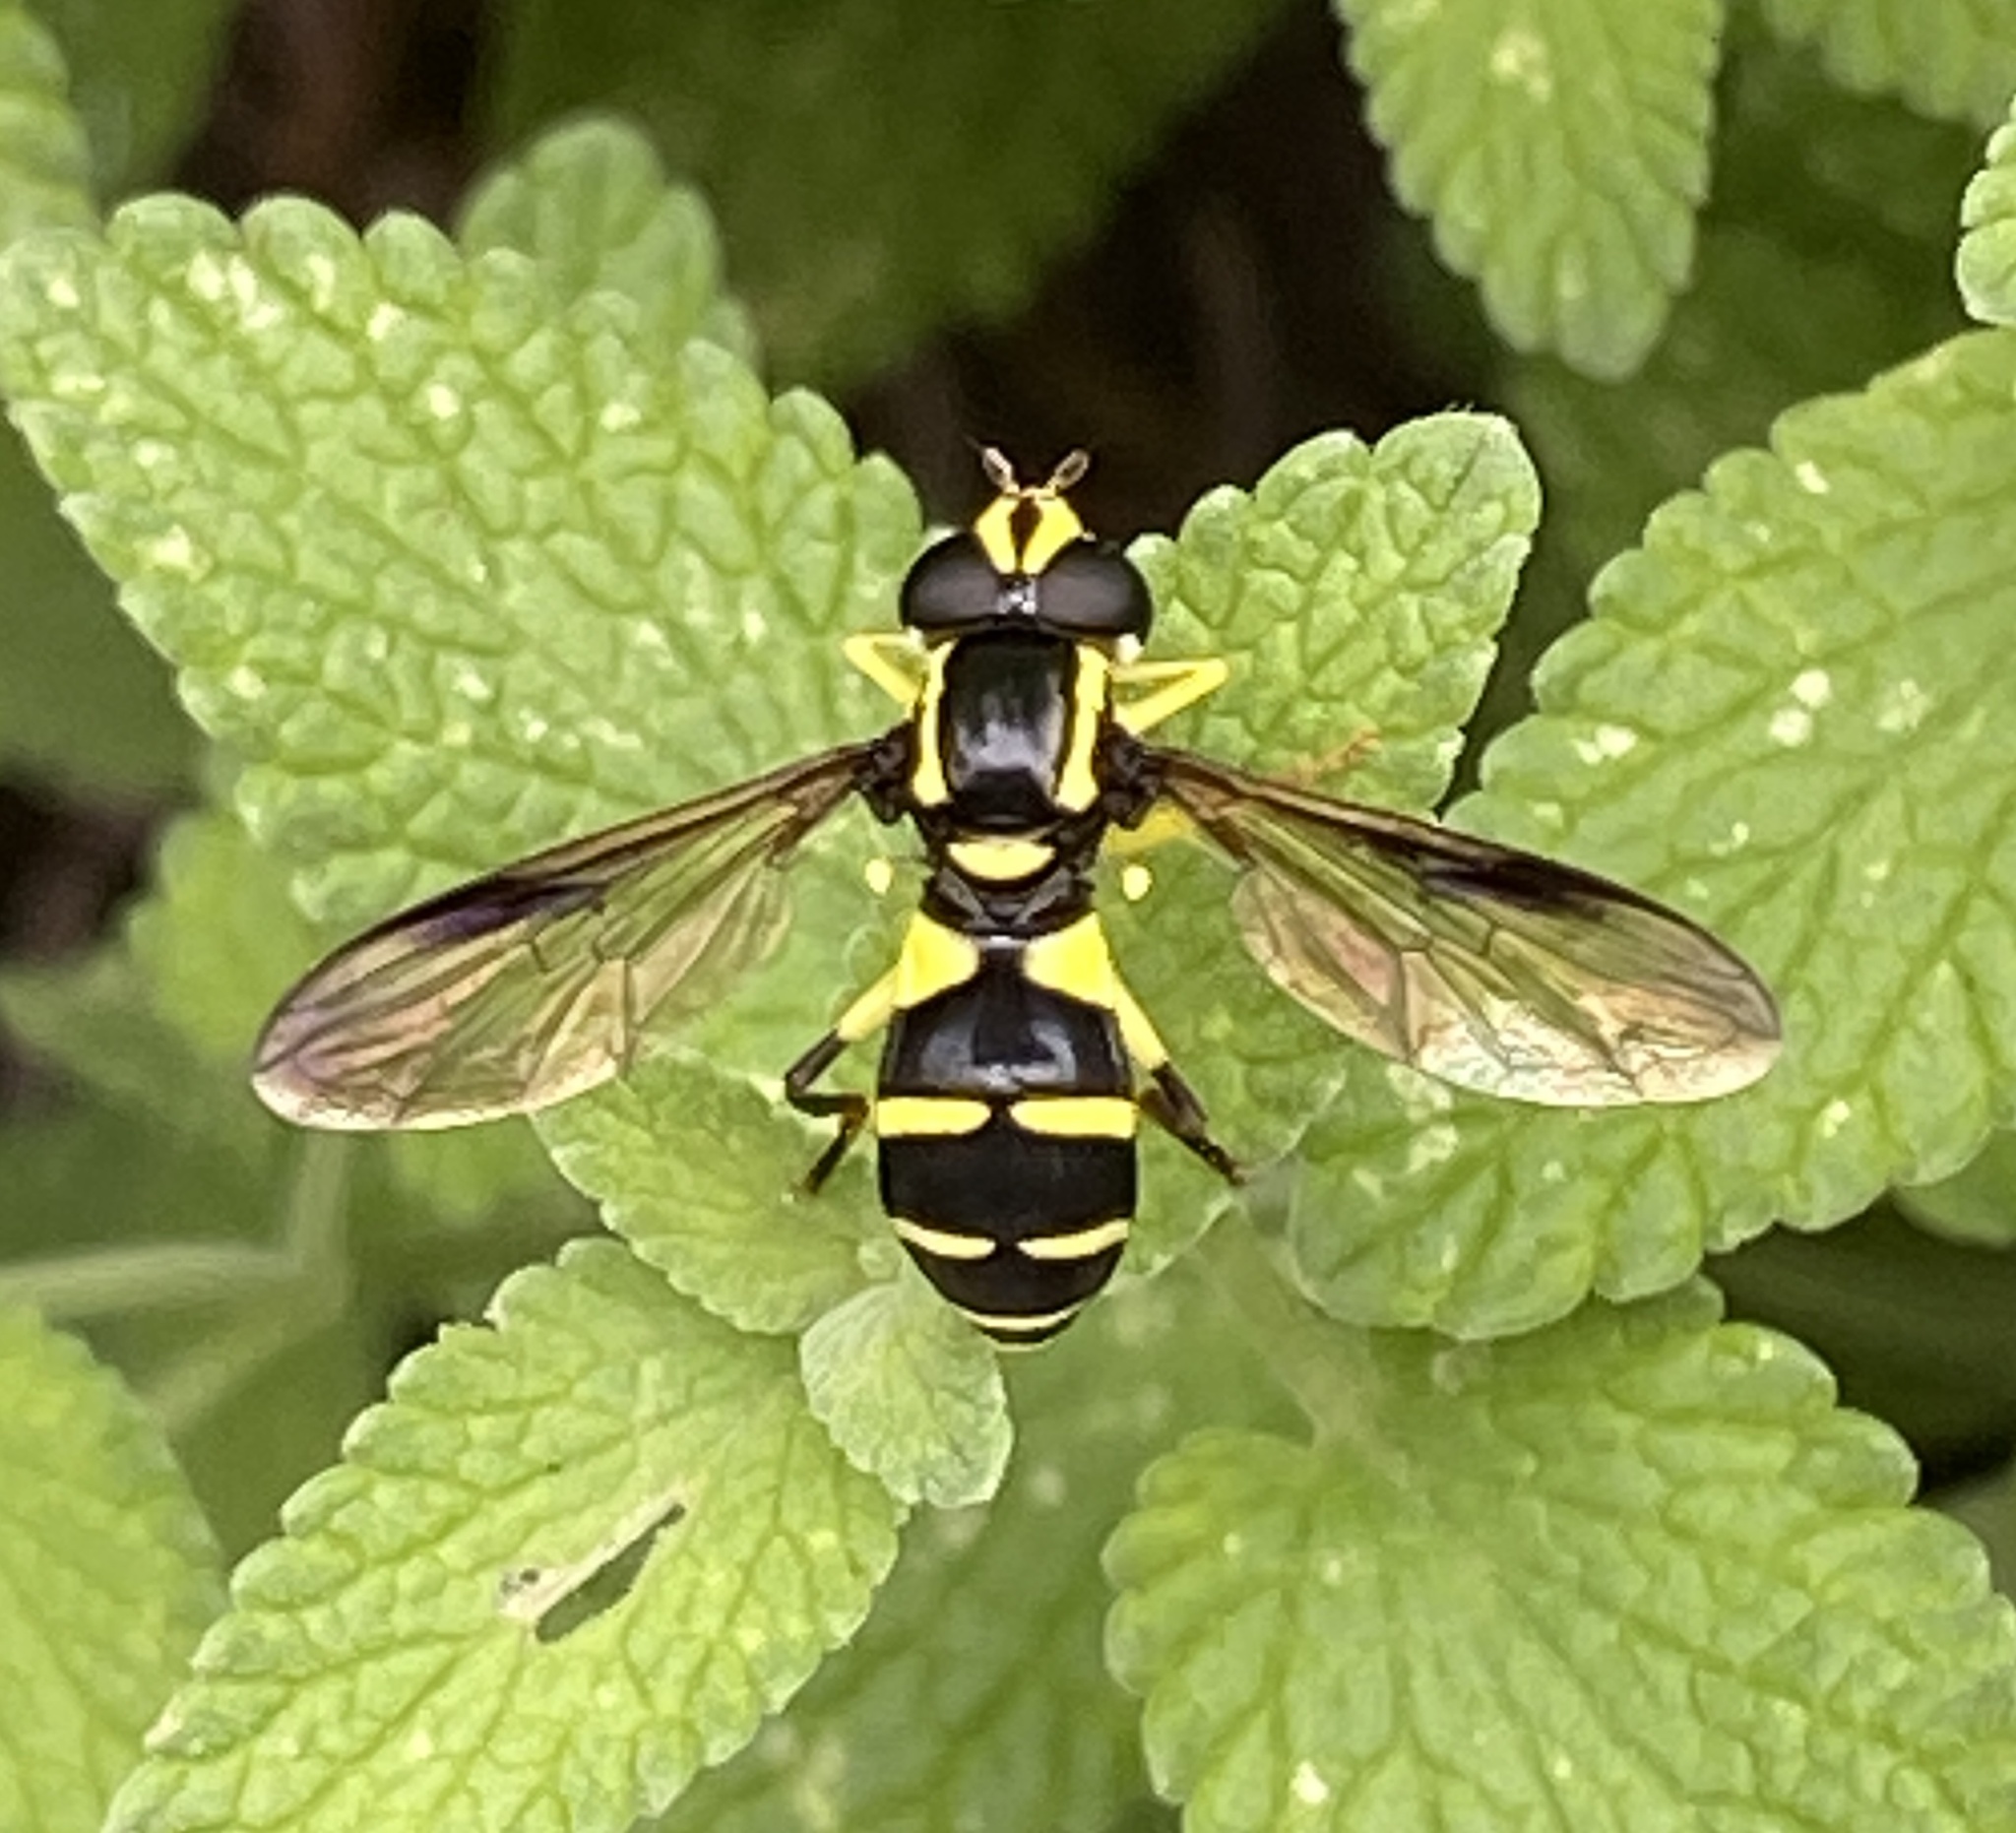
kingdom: Animalia
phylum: Arthropoda
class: Insecta
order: Diptera
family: Syrphidae
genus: Philhelius
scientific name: Philhelius pedissequum
